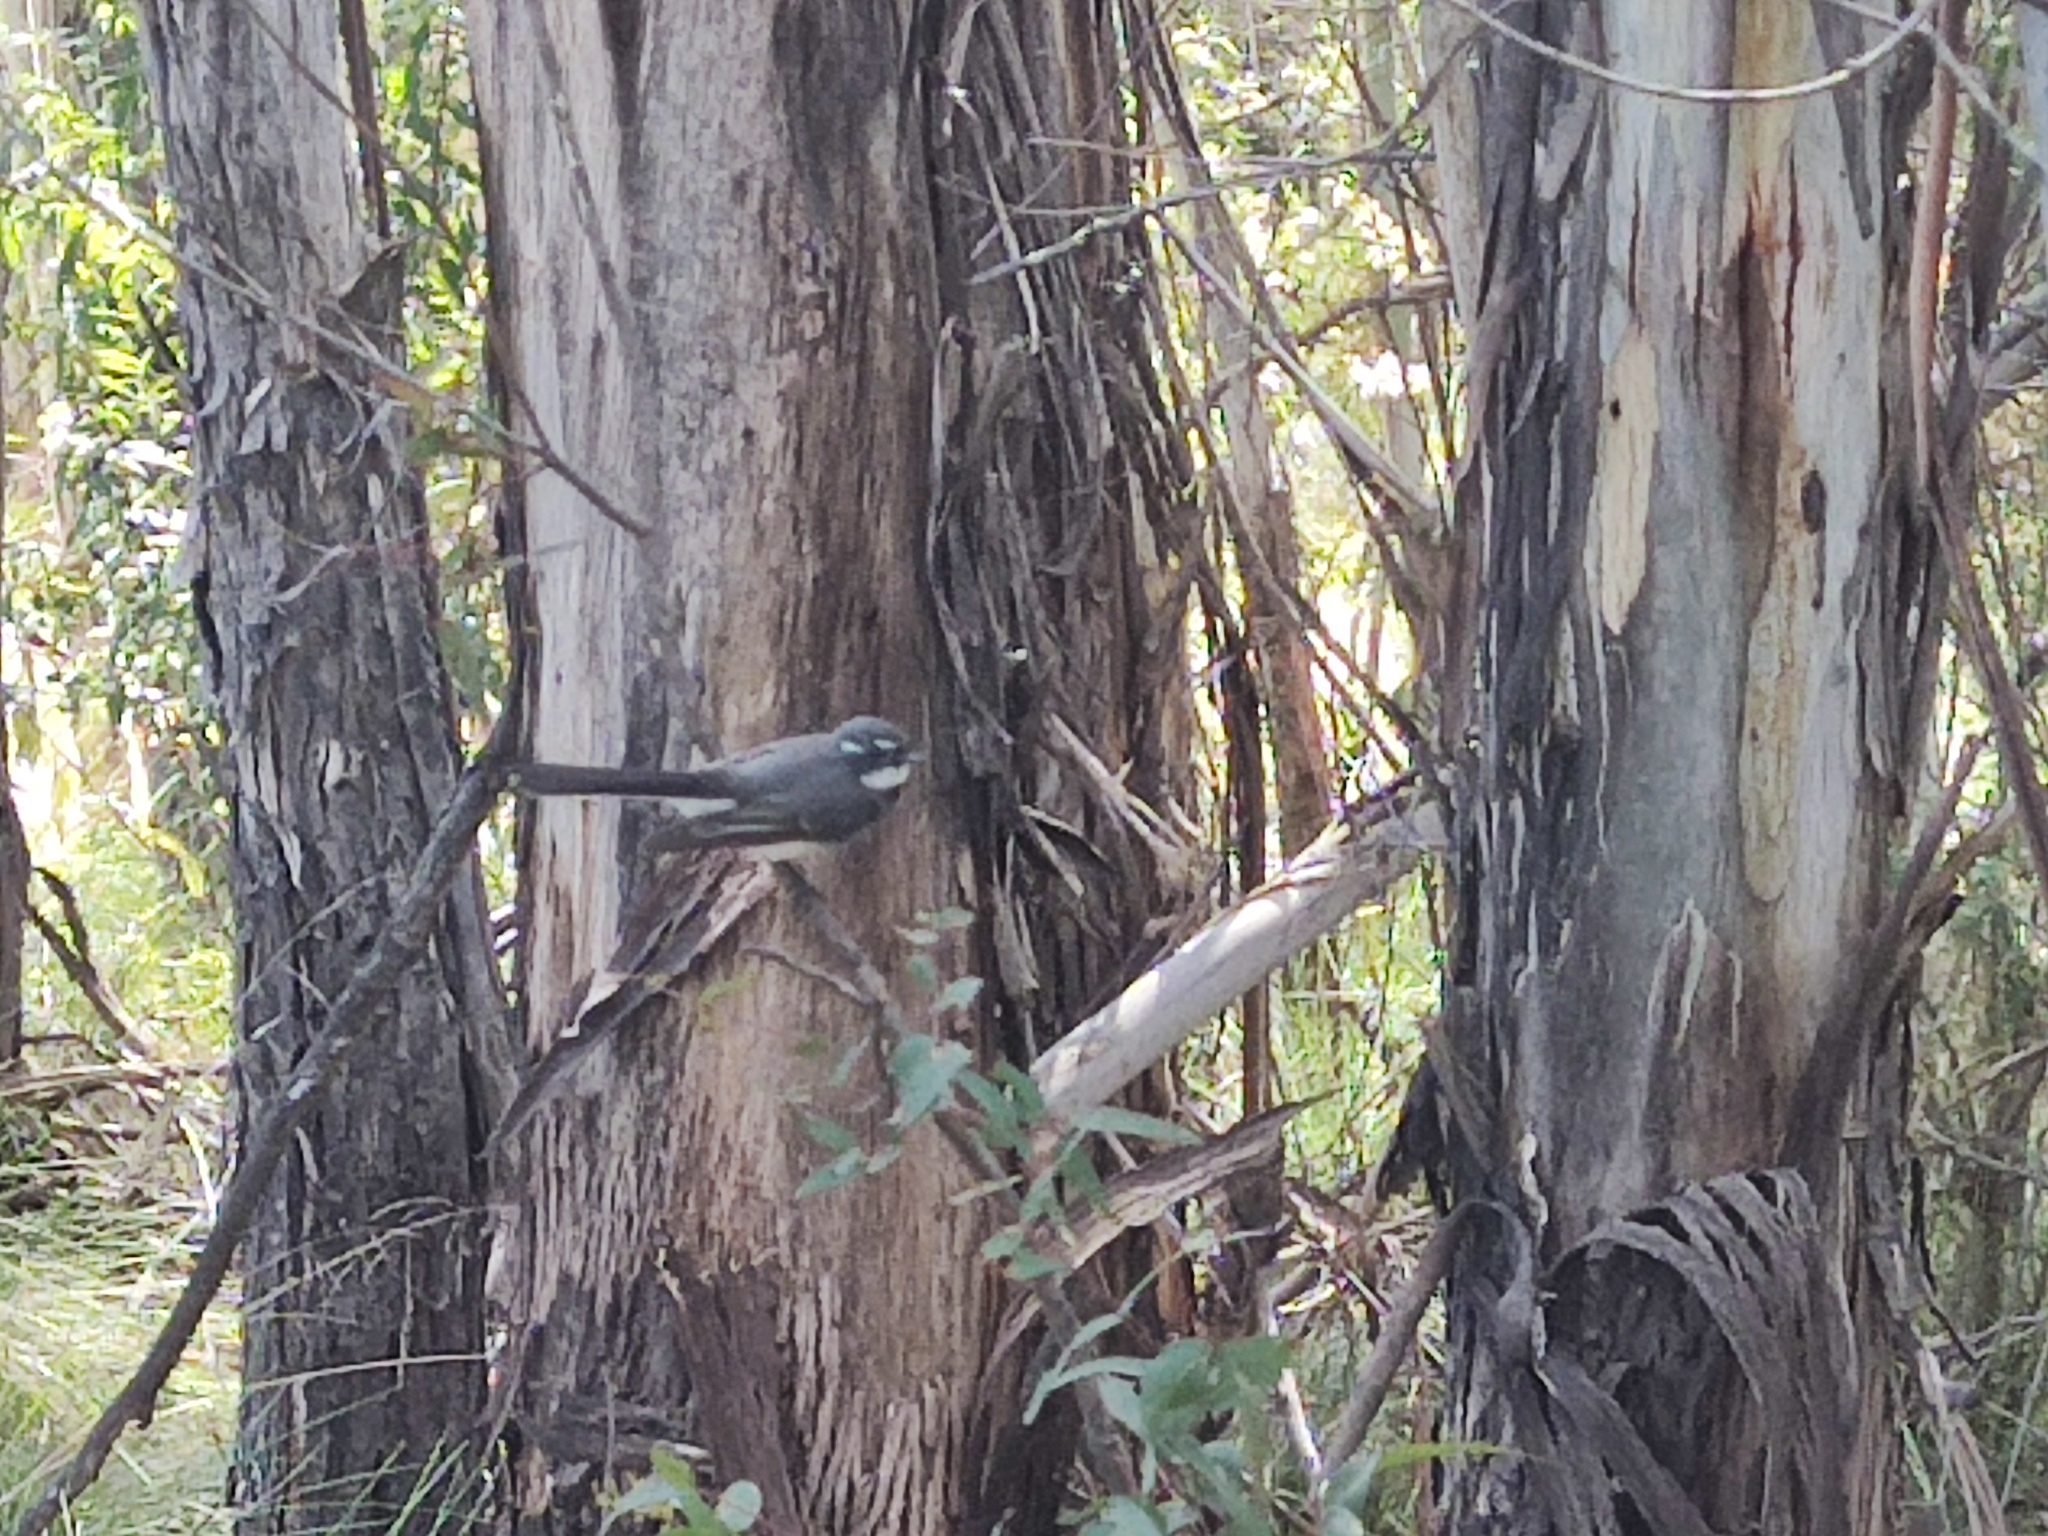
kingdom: Animalia
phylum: Chordata
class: Aves
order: Passeriformes
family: Rhipiduridae
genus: Rhipidura
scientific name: Rhipidura albiscapa
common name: Grey fantail
